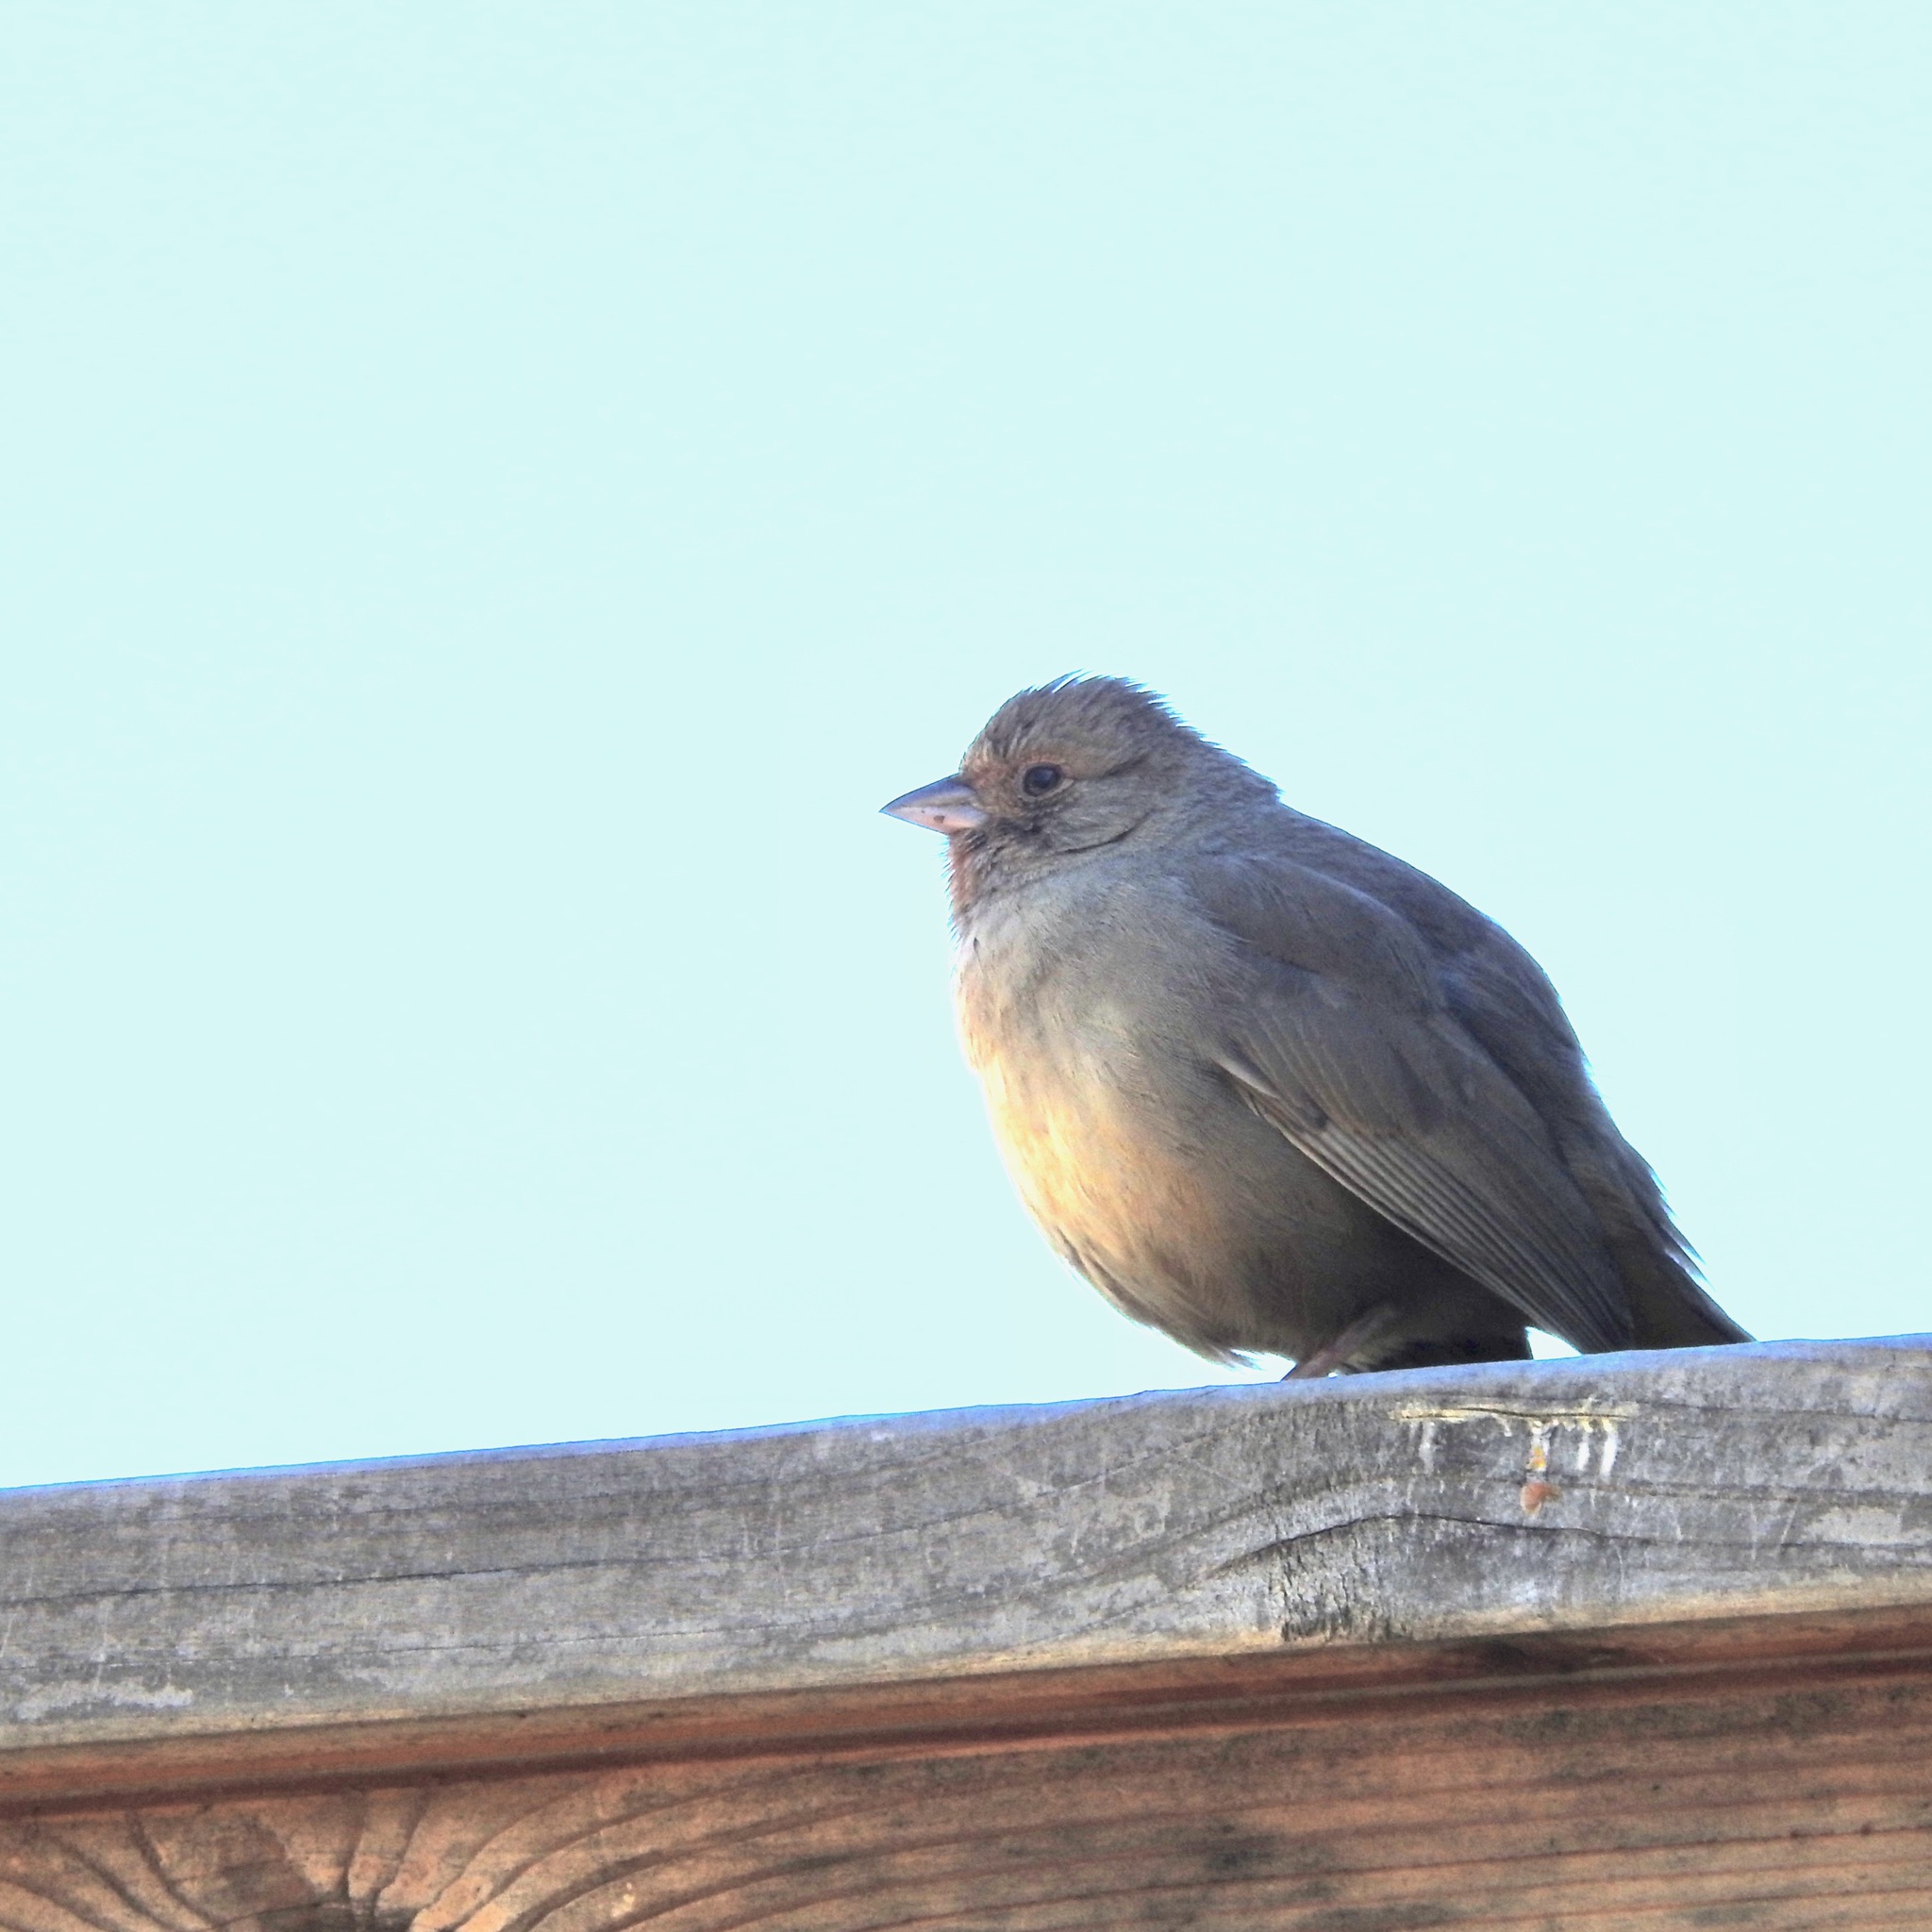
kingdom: Animalia
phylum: Chordata
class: Aves
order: Passeriformes
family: Passerellidae
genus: Melozone
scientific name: Melozone crissalis
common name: California towhee
